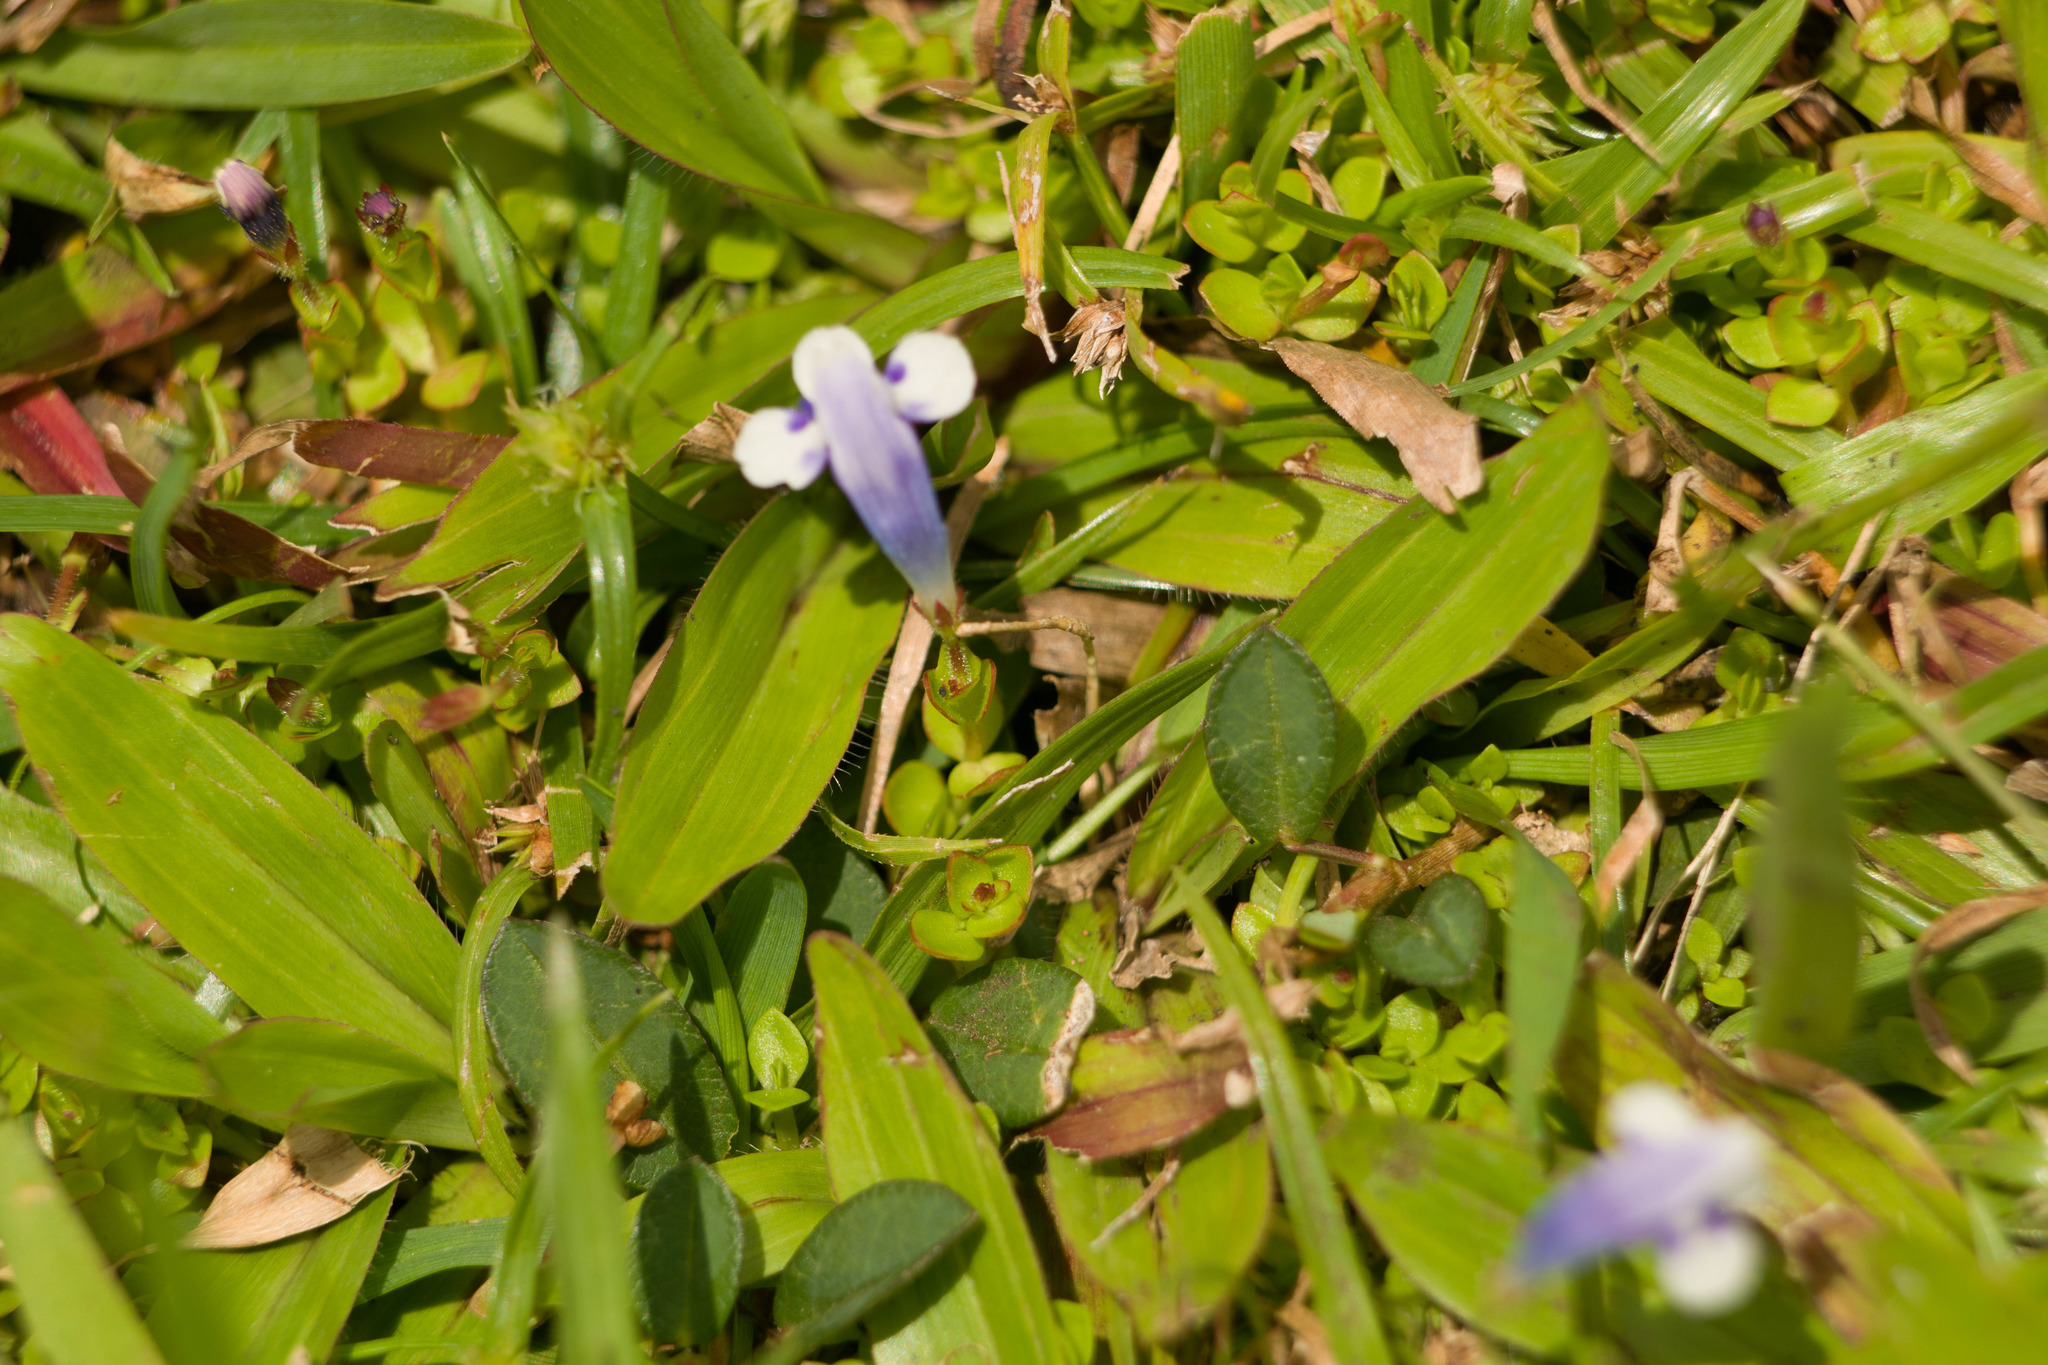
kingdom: Plantae
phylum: Tracheophyta
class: Magnoliopsida
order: Lamiales
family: Linderniaceae
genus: Lindernia
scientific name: Lindernia rotundifolia
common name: Baby’s tears
